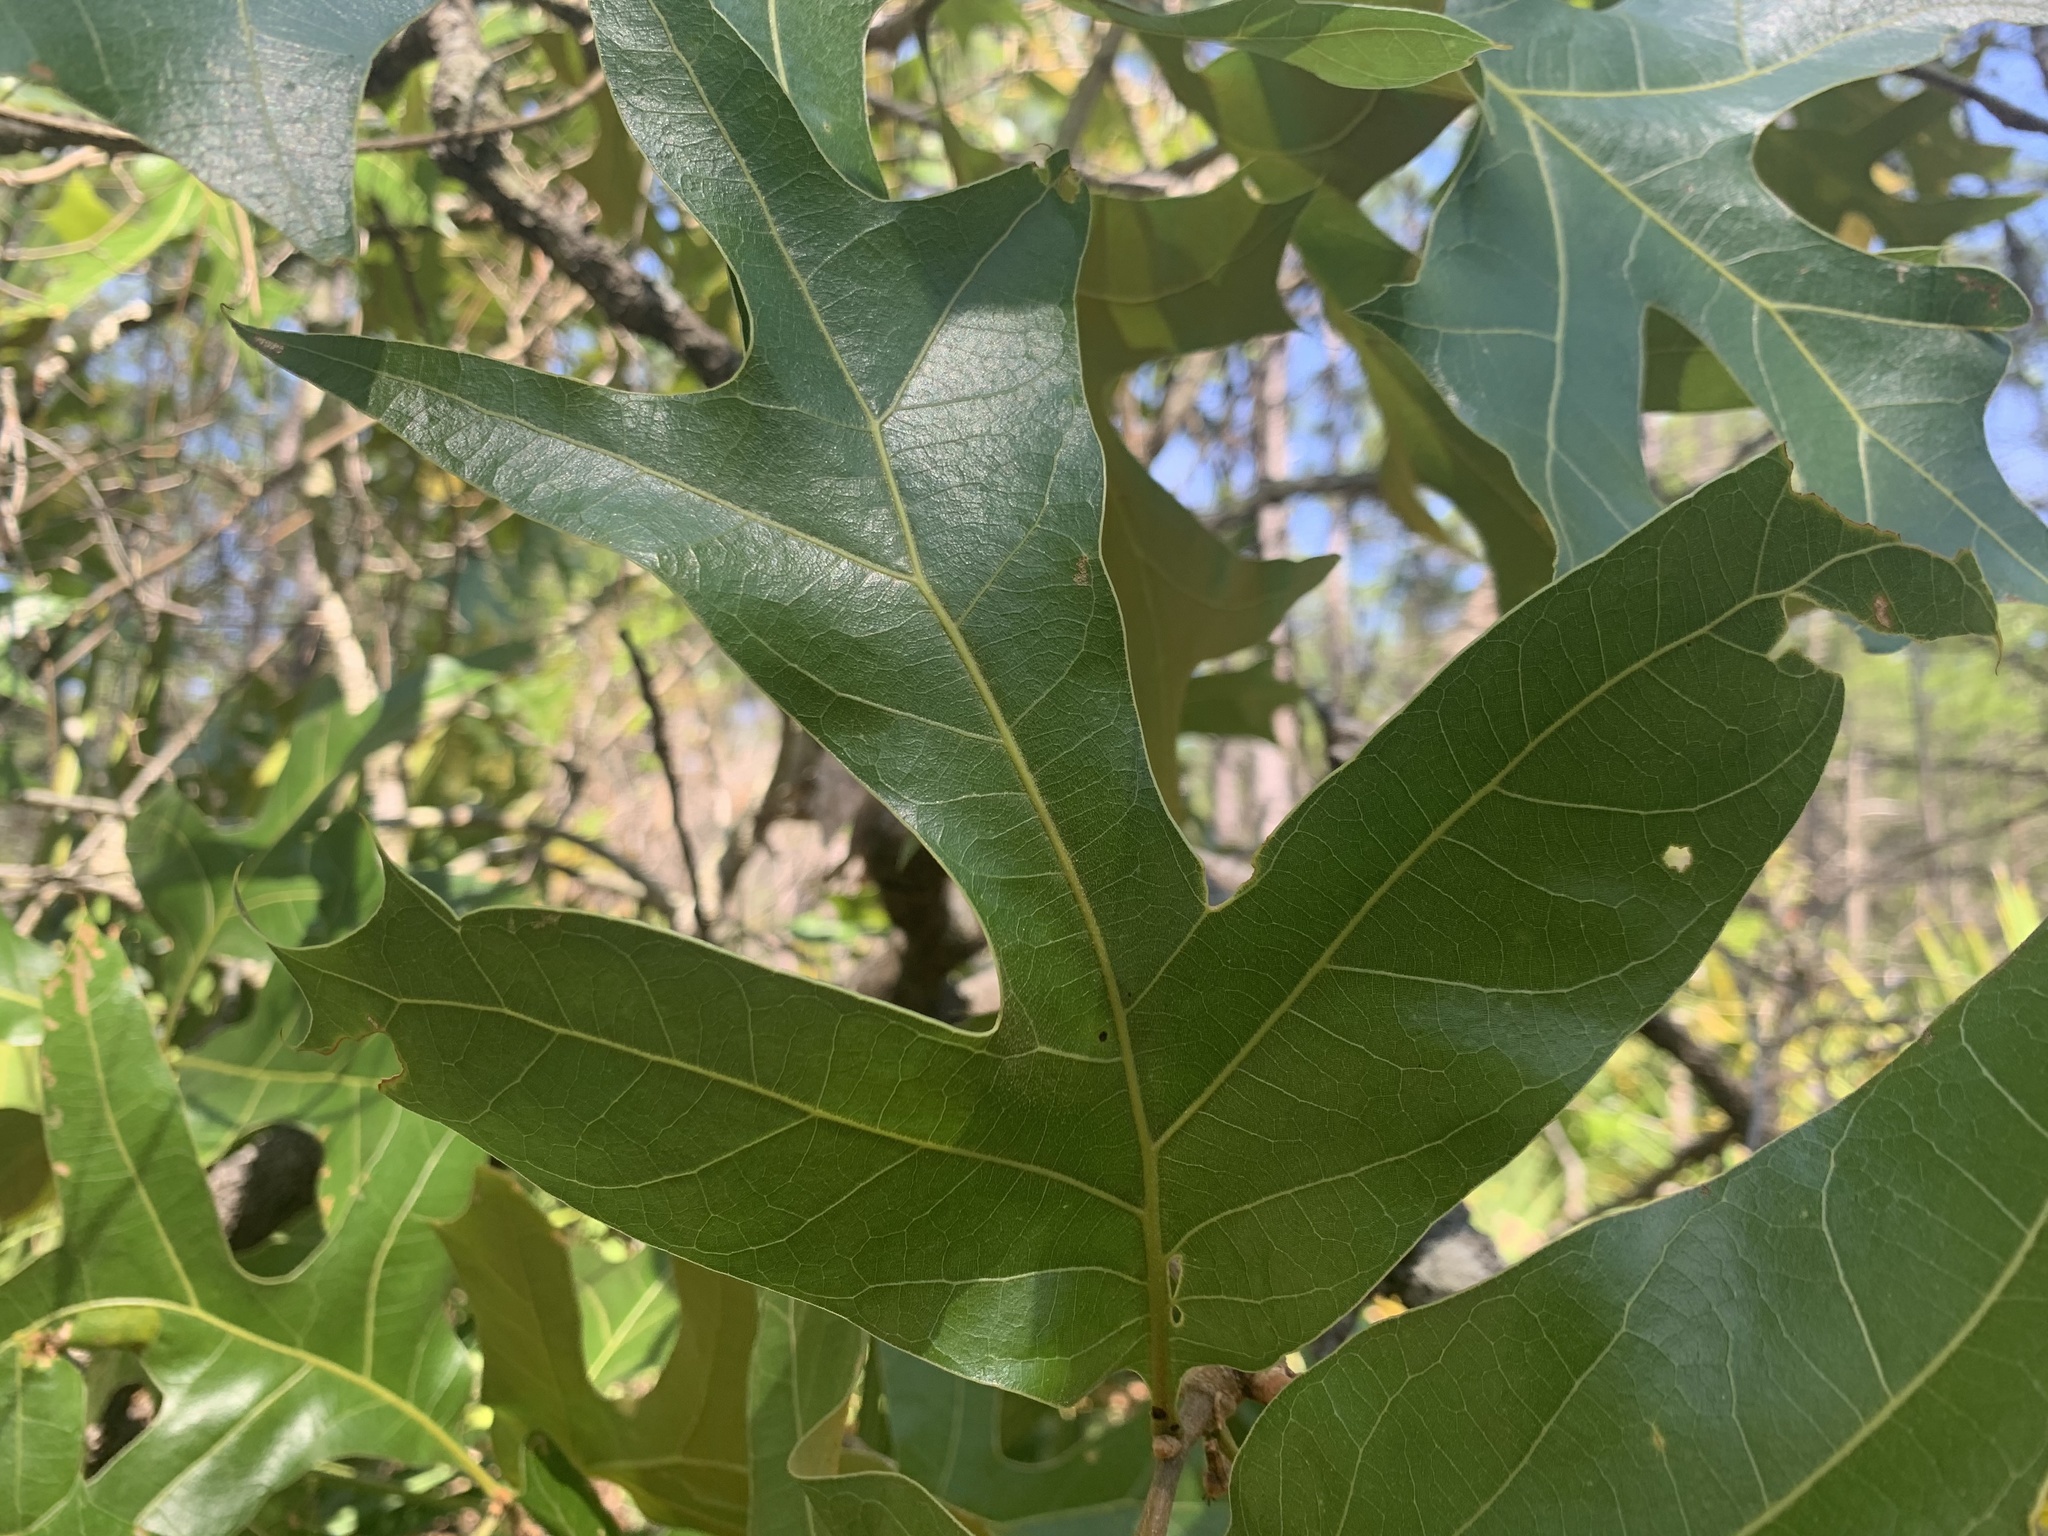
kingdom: Plantae
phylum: Tracheophyta
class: Magnoliopsida
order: Fagales
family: Fagaceae
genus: Quercus
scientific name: Quercus laevis
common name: Turkey oak
